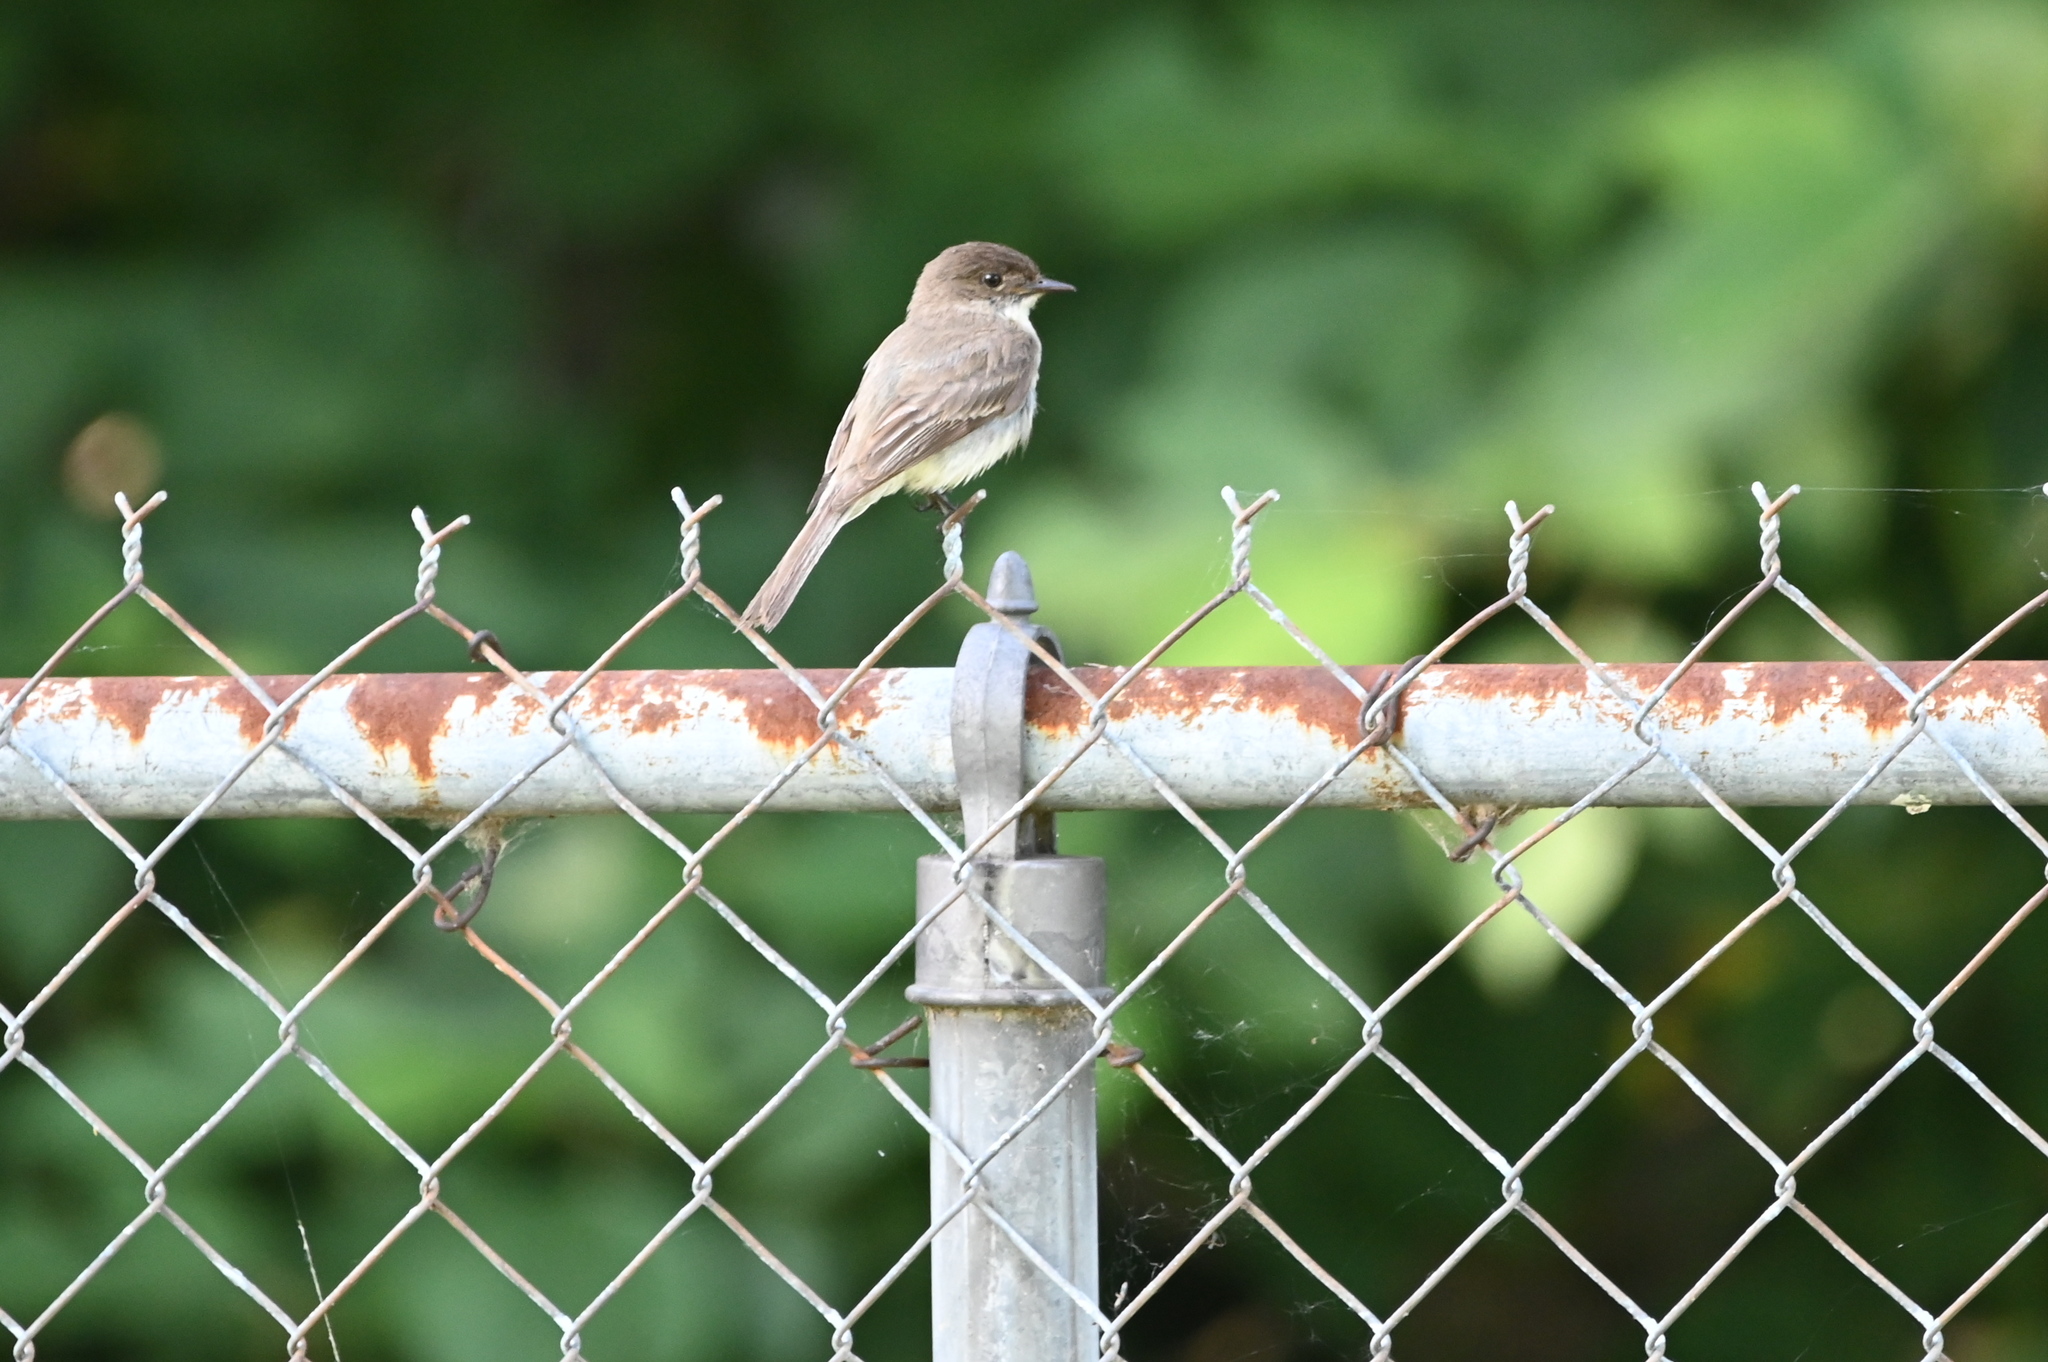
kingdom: Animalia
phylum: Chordata
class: Aves
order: Passeriformes
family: Tyrannidae
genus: Sayornis
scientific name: Sayornis phoebe
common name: Eastern phoebe
